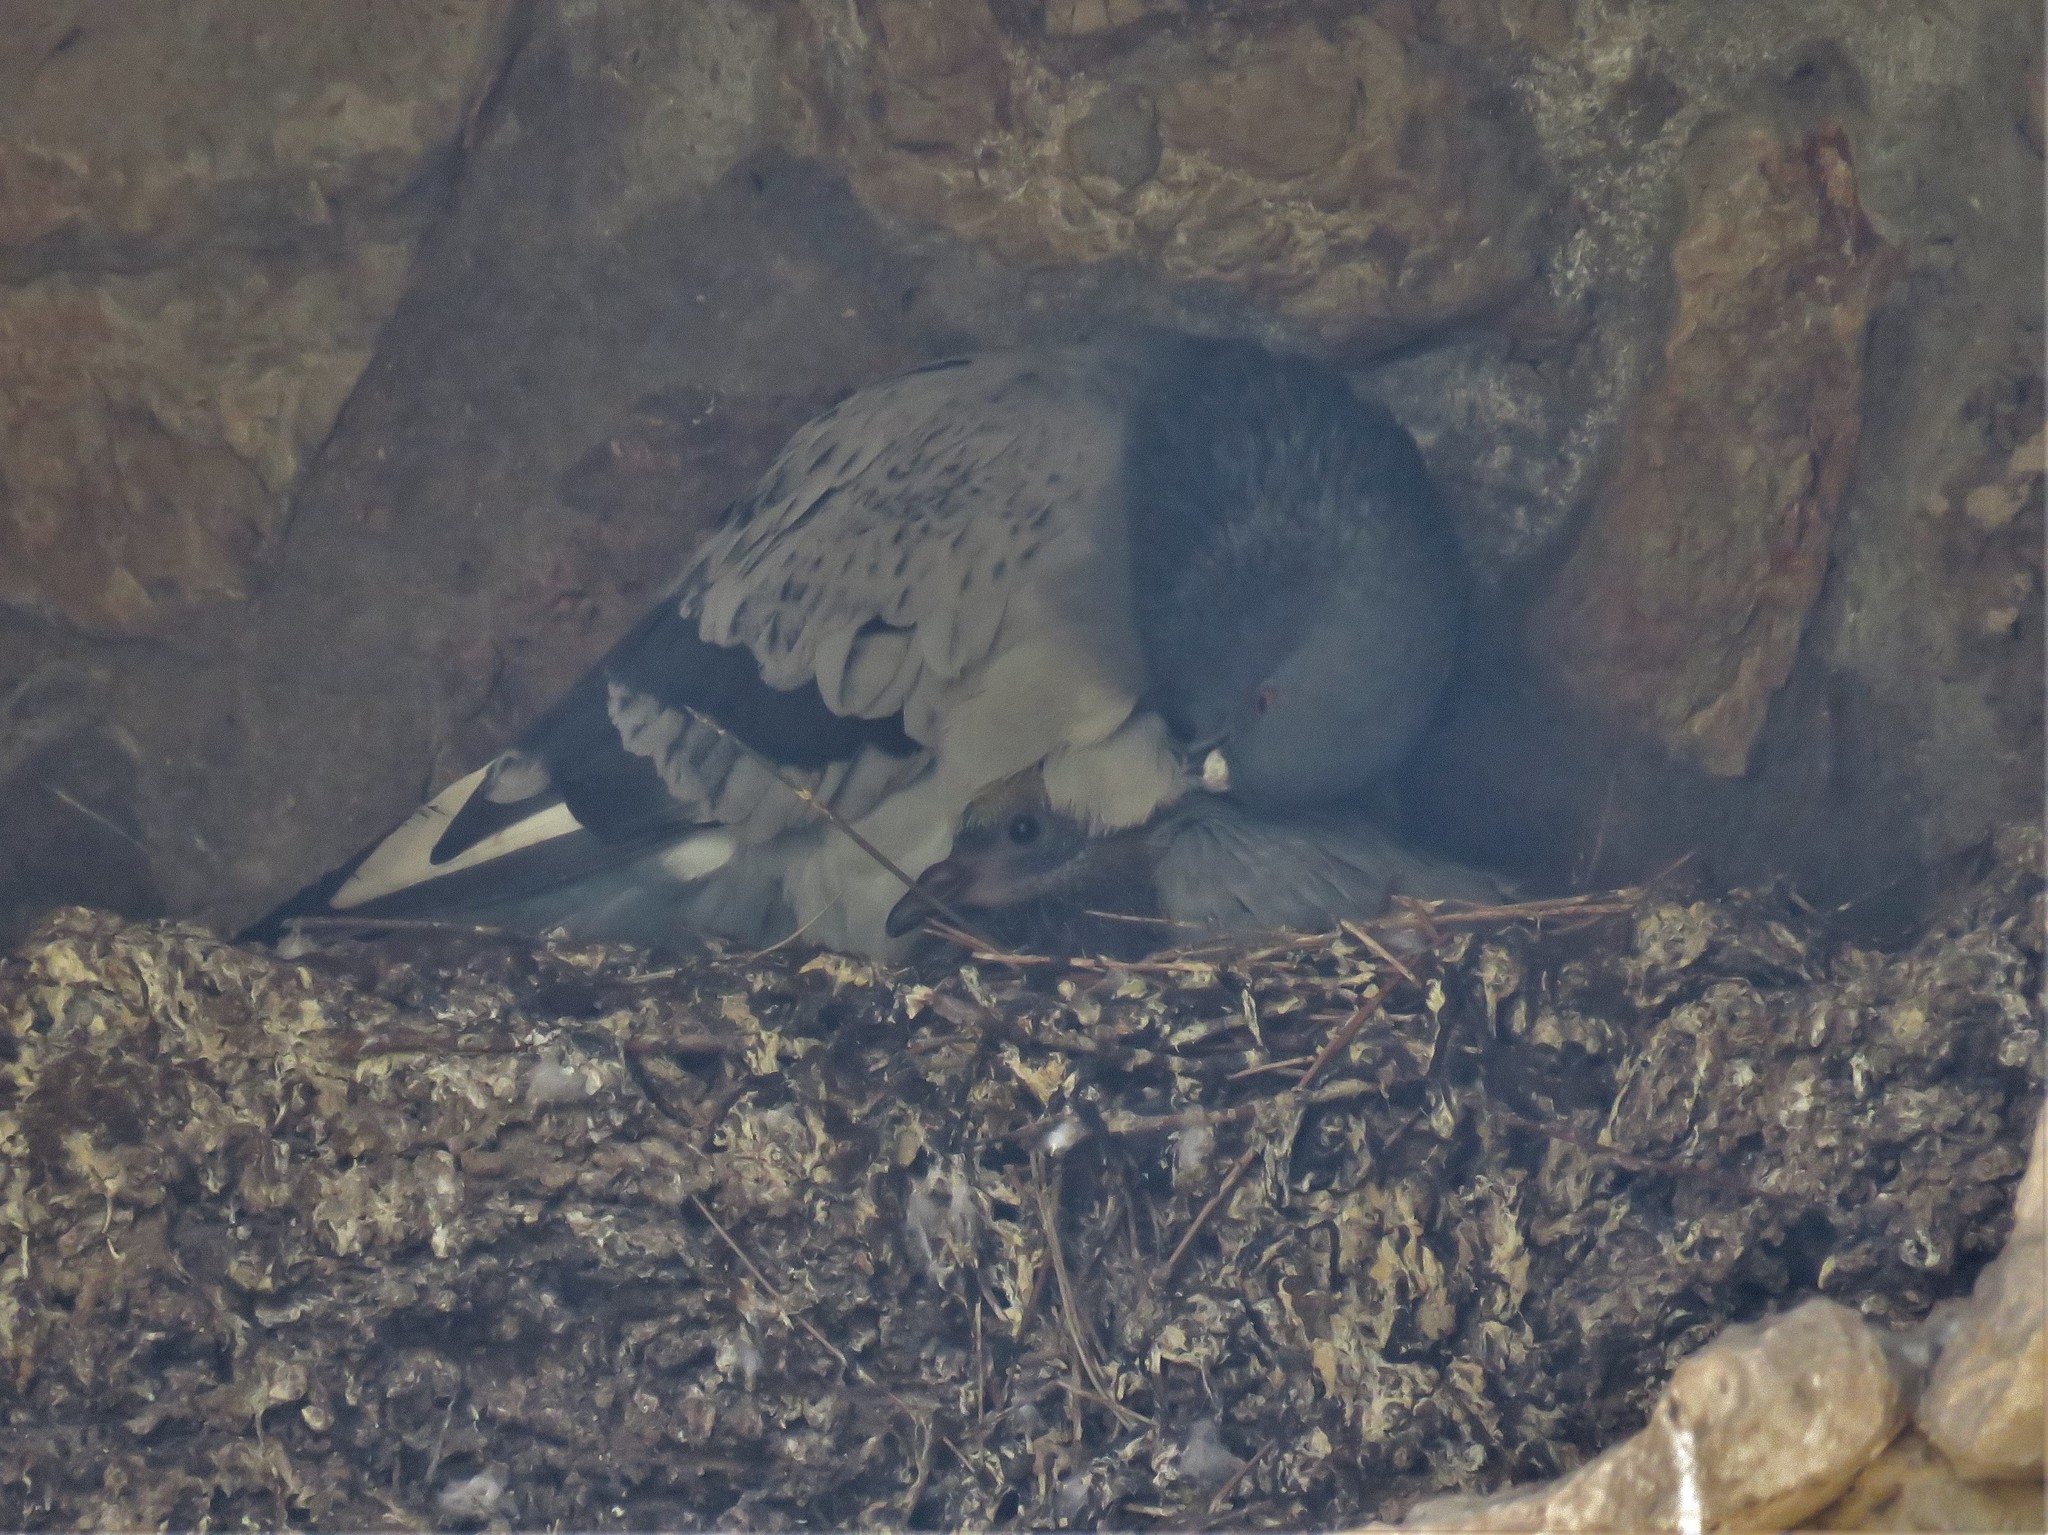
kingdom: Animalia
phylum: Chordata
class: Aves
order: Columbiformes
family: Columbidae
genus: Columba
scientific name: Columba livia
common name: Rock pigeon
